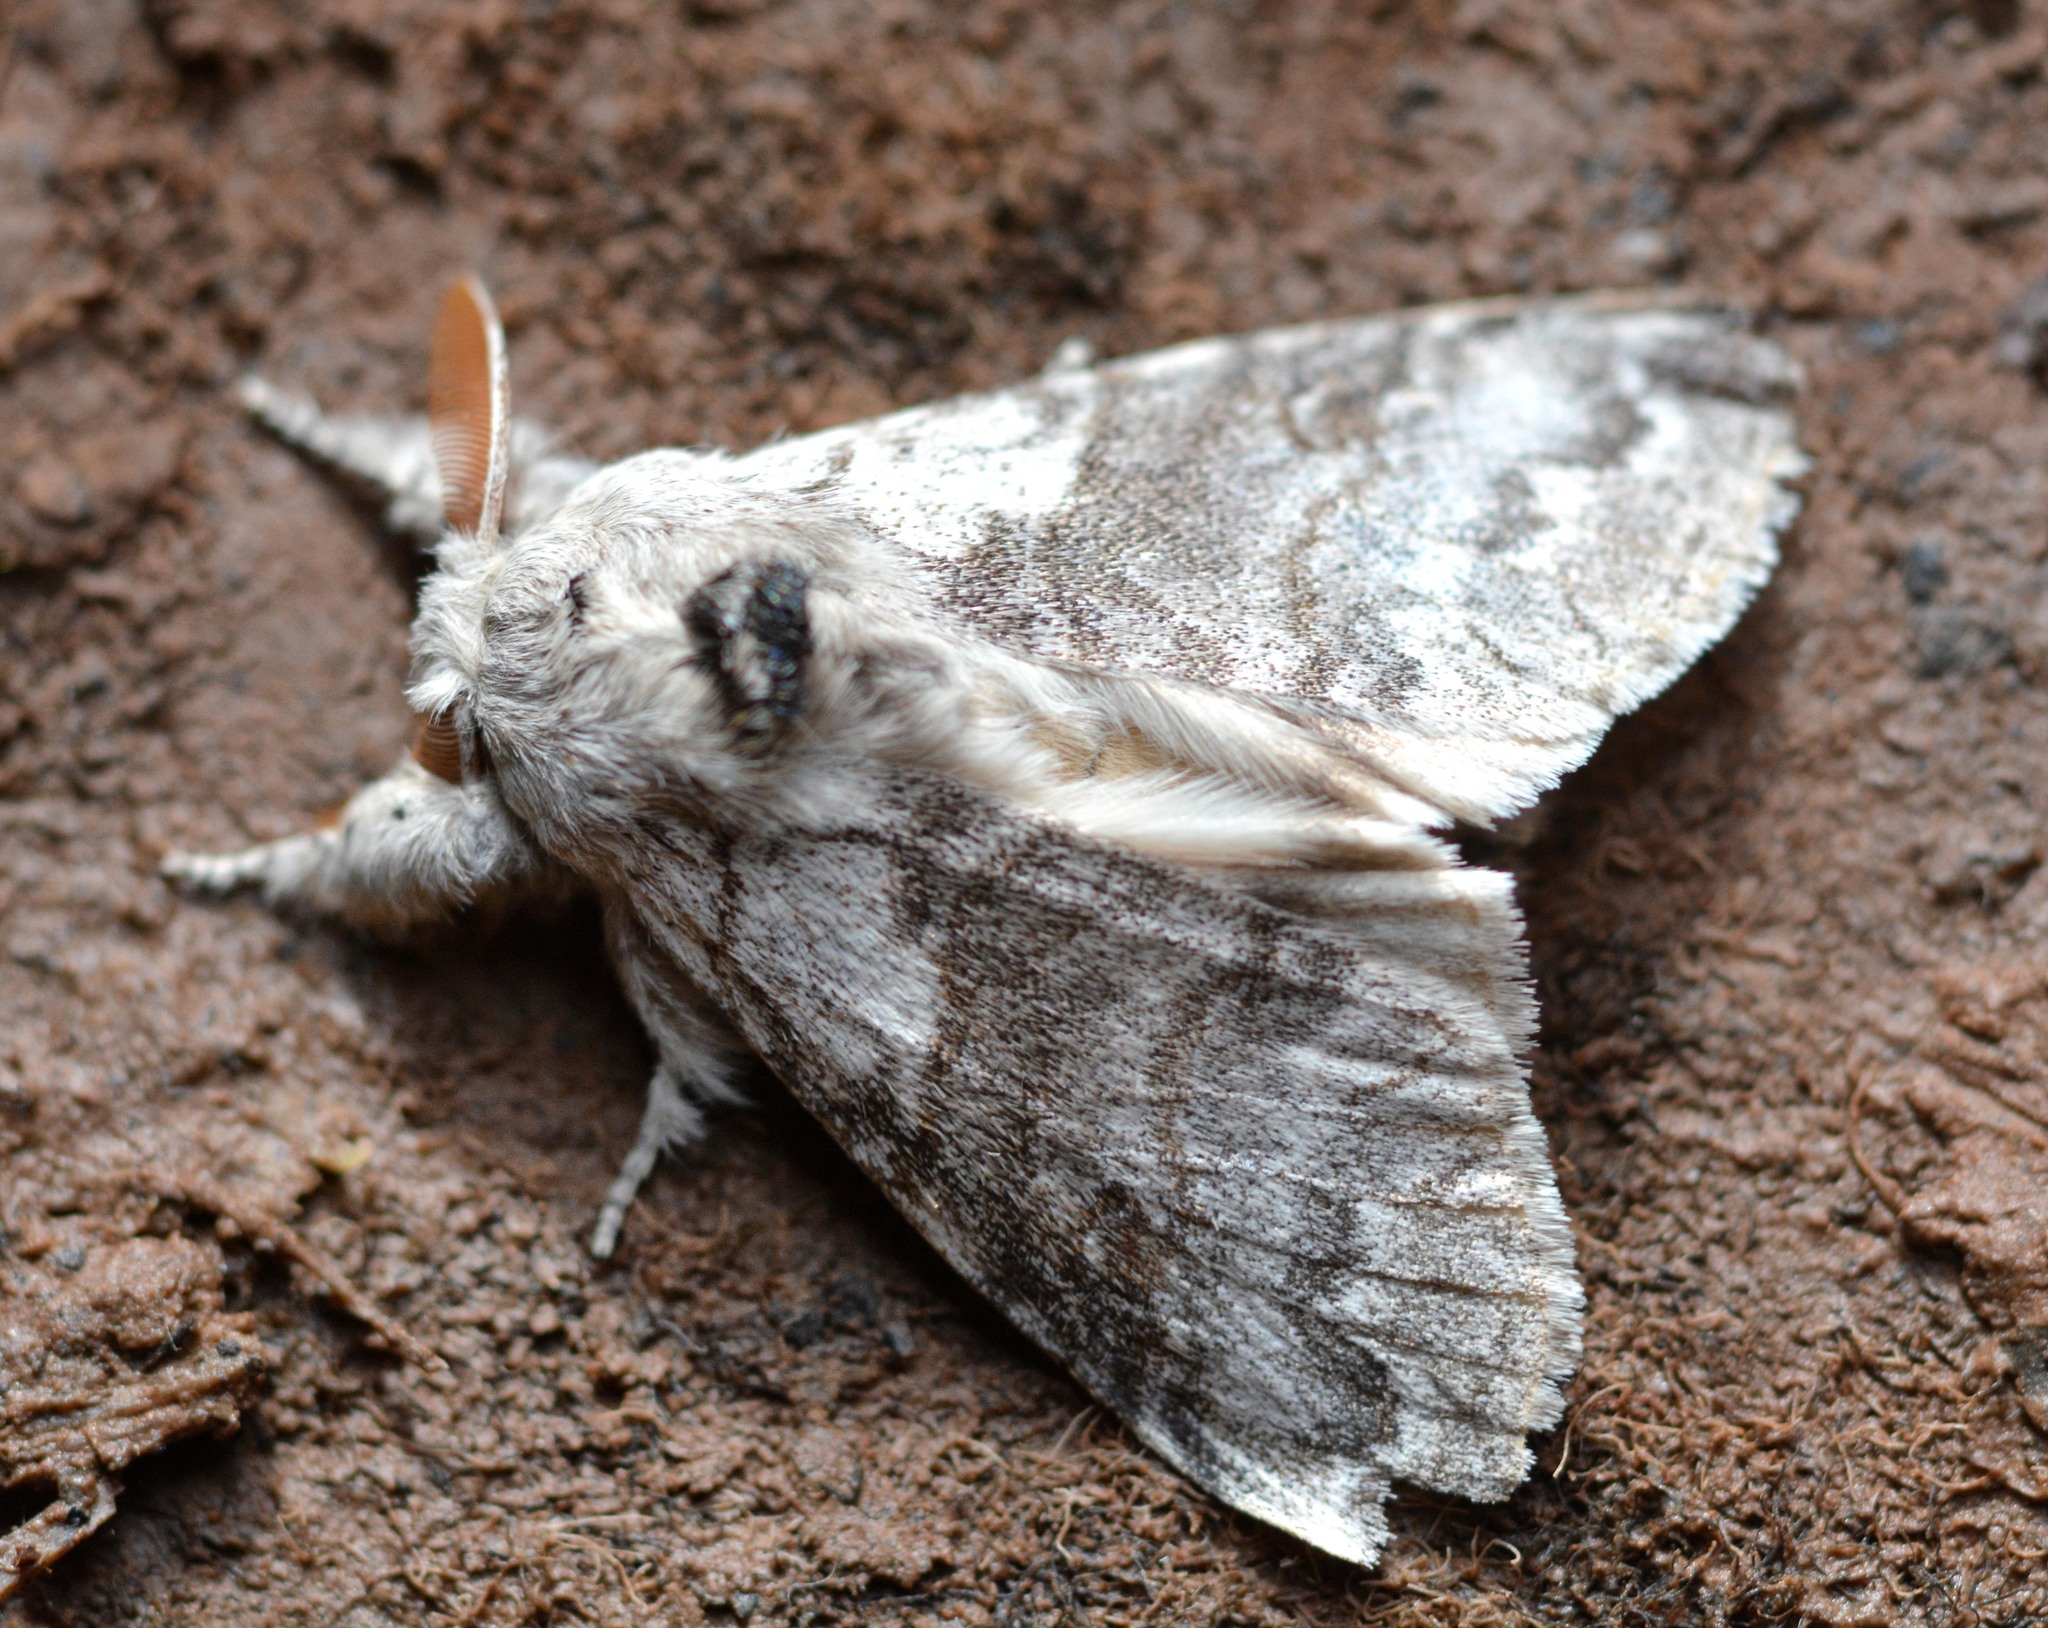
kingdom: Animalia
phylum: Arthropoda
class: Insecta
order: Lepidoptera
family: Erebidae
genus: Calliteara
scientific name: Calliteara pudibunda
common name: Pale tussock
